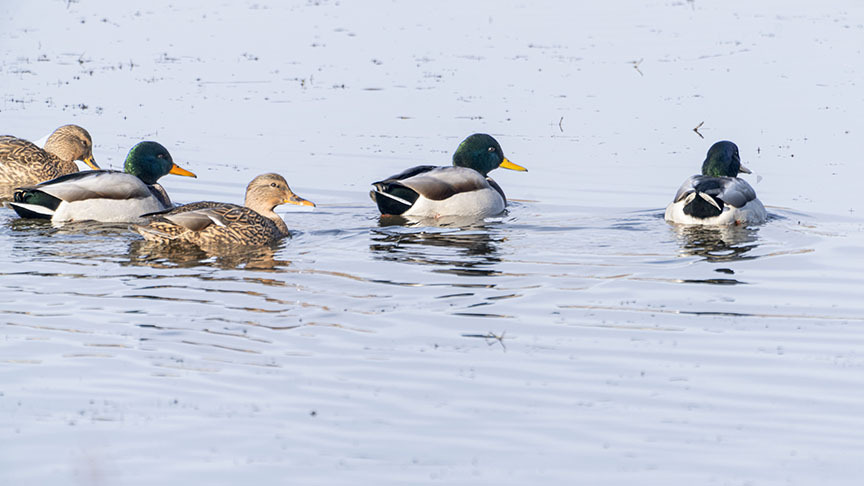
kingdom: Animalia
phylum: Chordata
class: Aves
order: Anseriformes
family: Anatidae
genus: Anas
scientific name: Anas platyrhynchos
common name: Mallard
